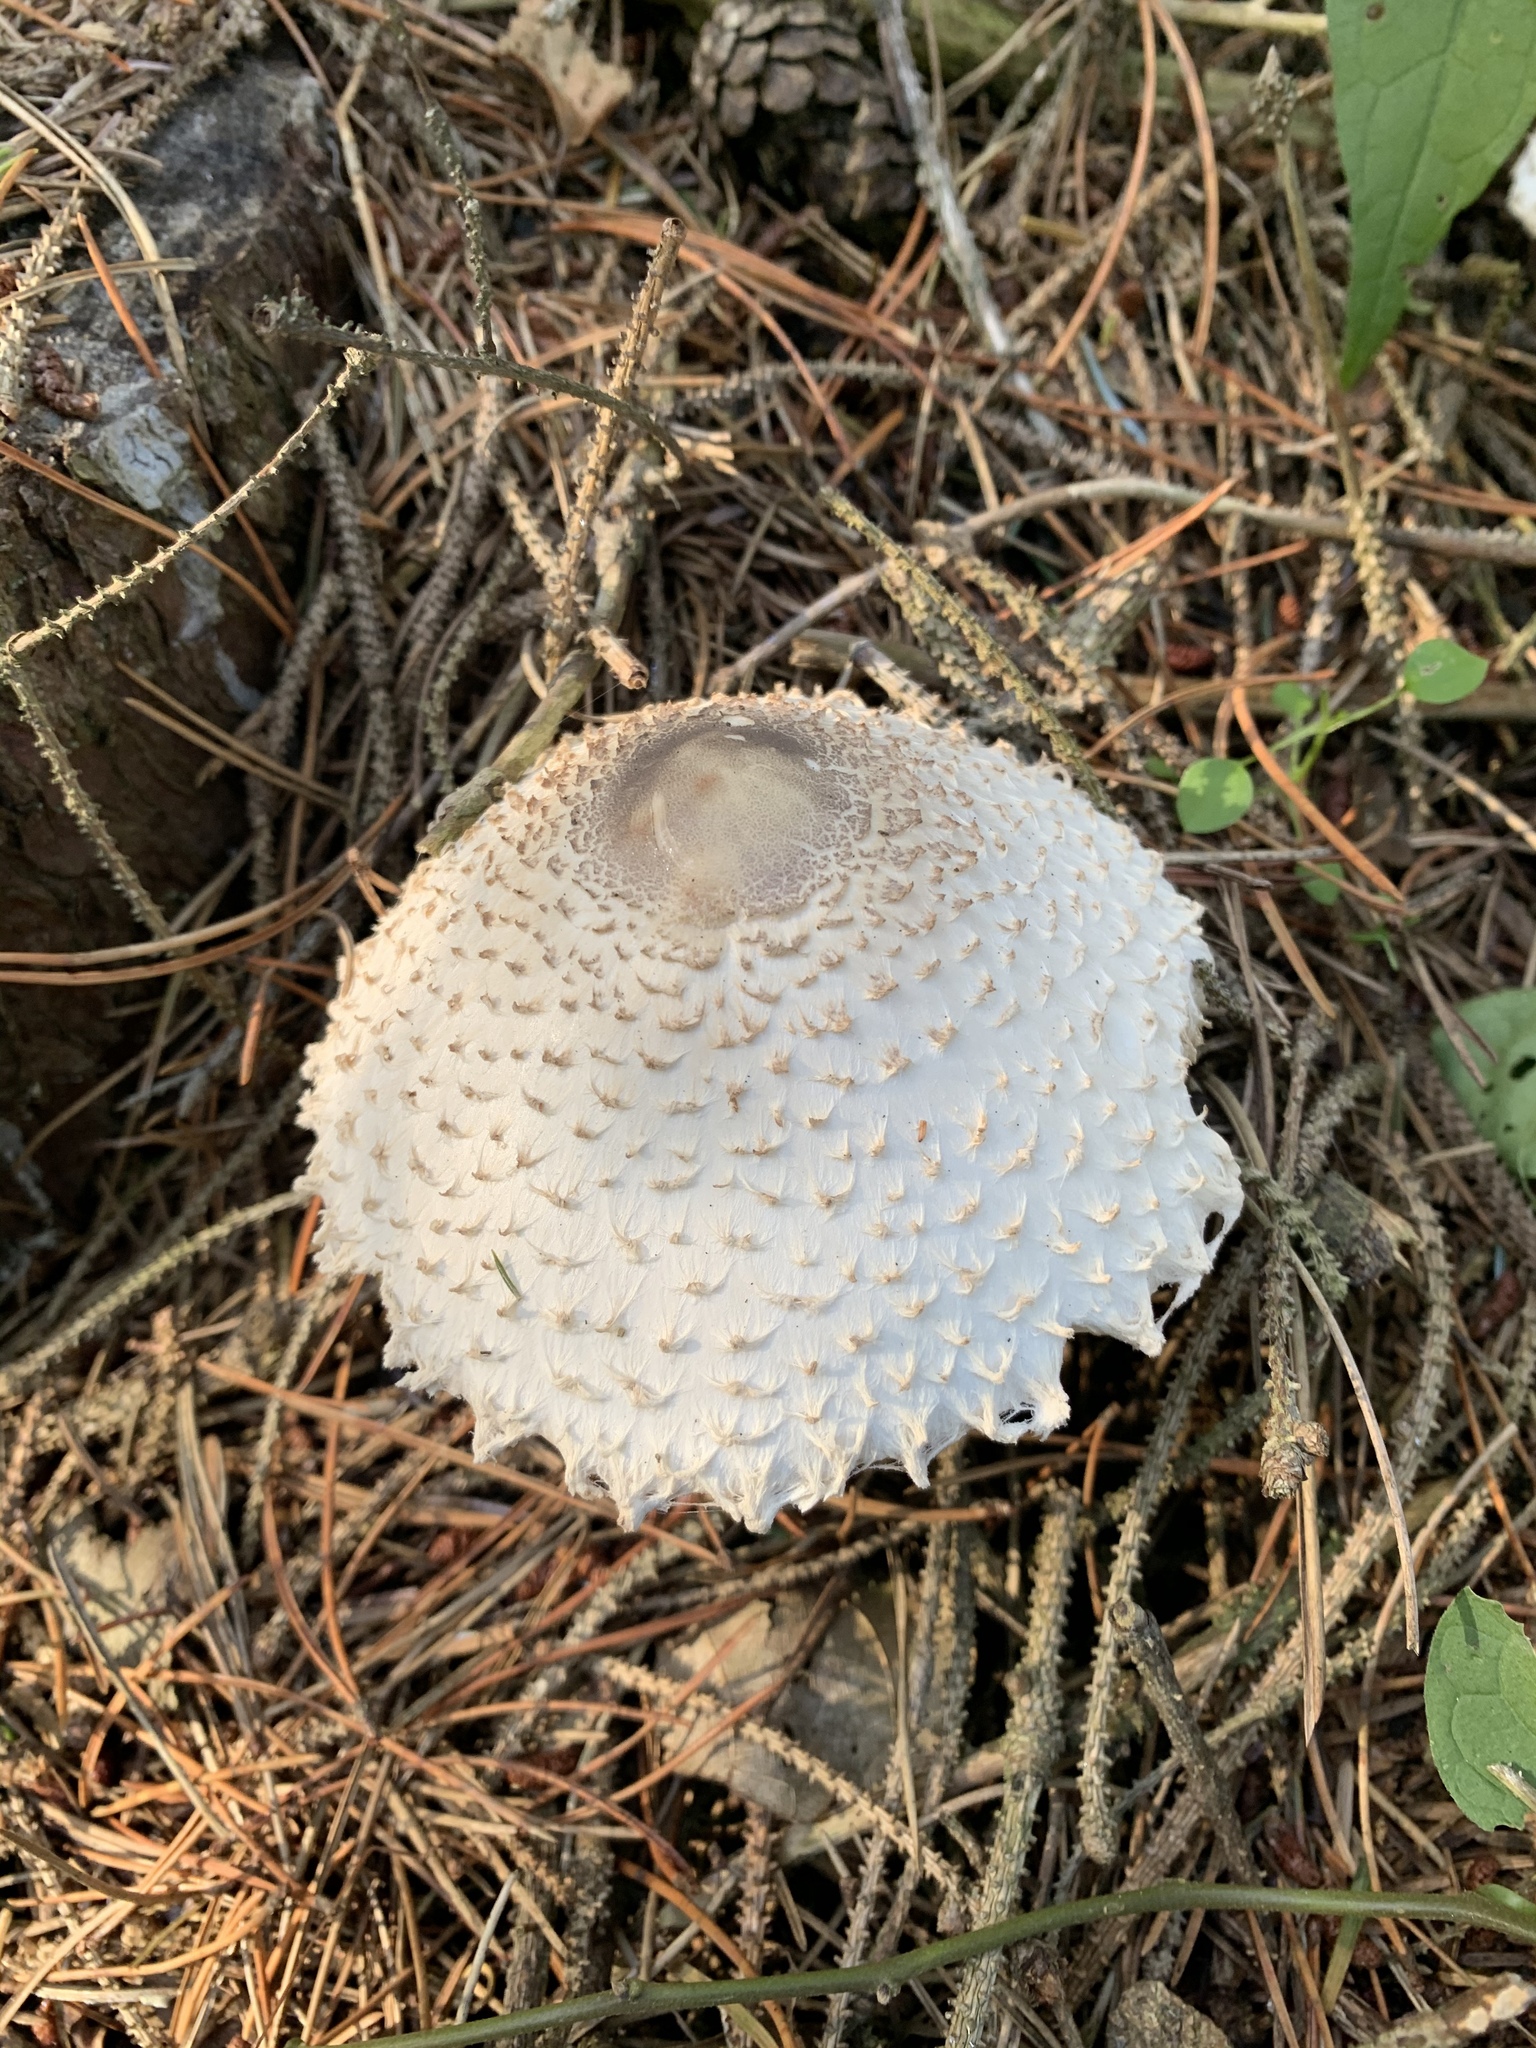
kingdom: Fungi
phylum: Basidiomycota
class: Agaricomycetes
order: Agaricales
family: Agaricaceae
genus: Leucoagaricus
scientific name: Leucoagaricus nympharum
